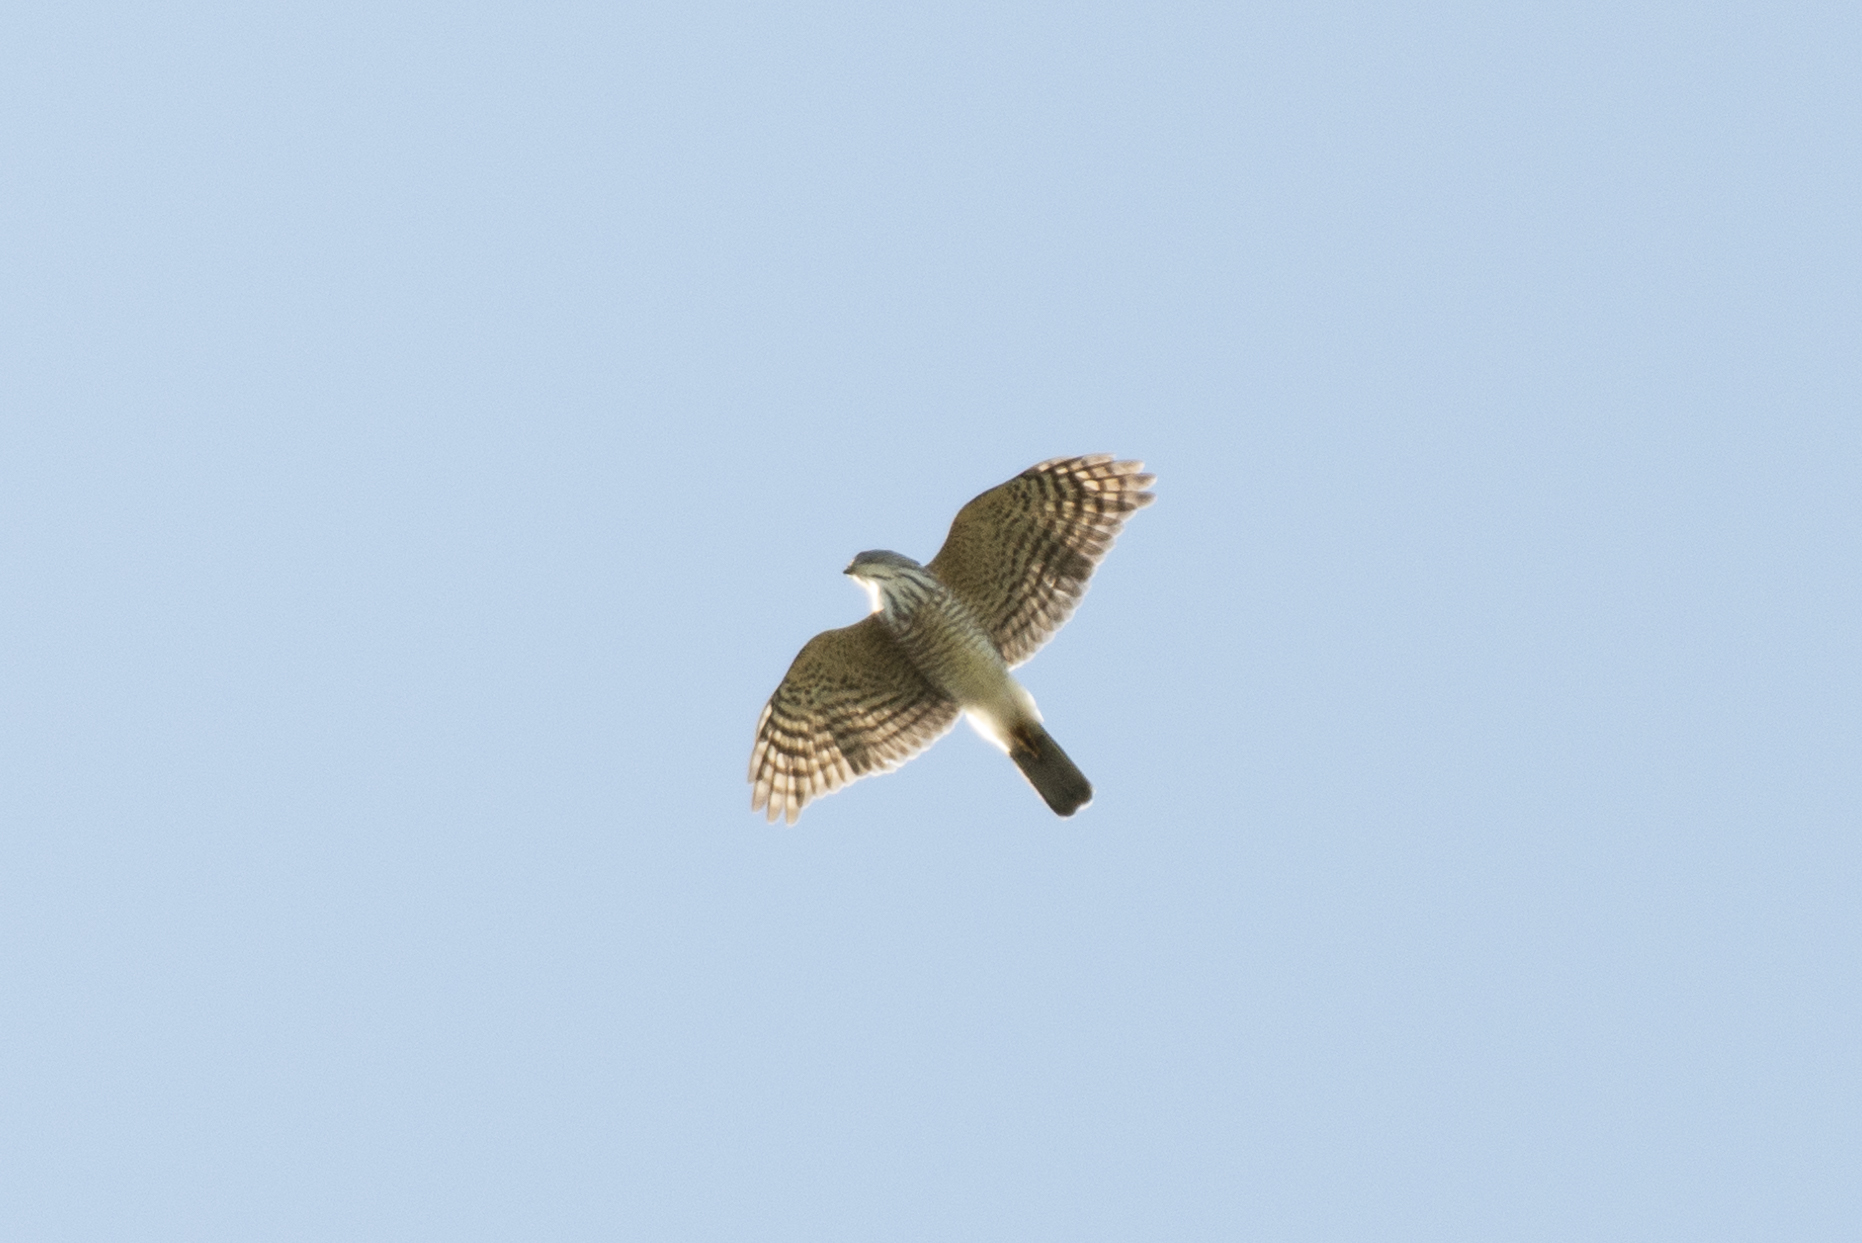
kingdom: Animalia
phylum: Chordata
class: Aves
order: Accipitriformes
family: Accipitridae
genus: Accipiter
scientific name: Accipiter trivirgatus
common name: Crested goshawk
